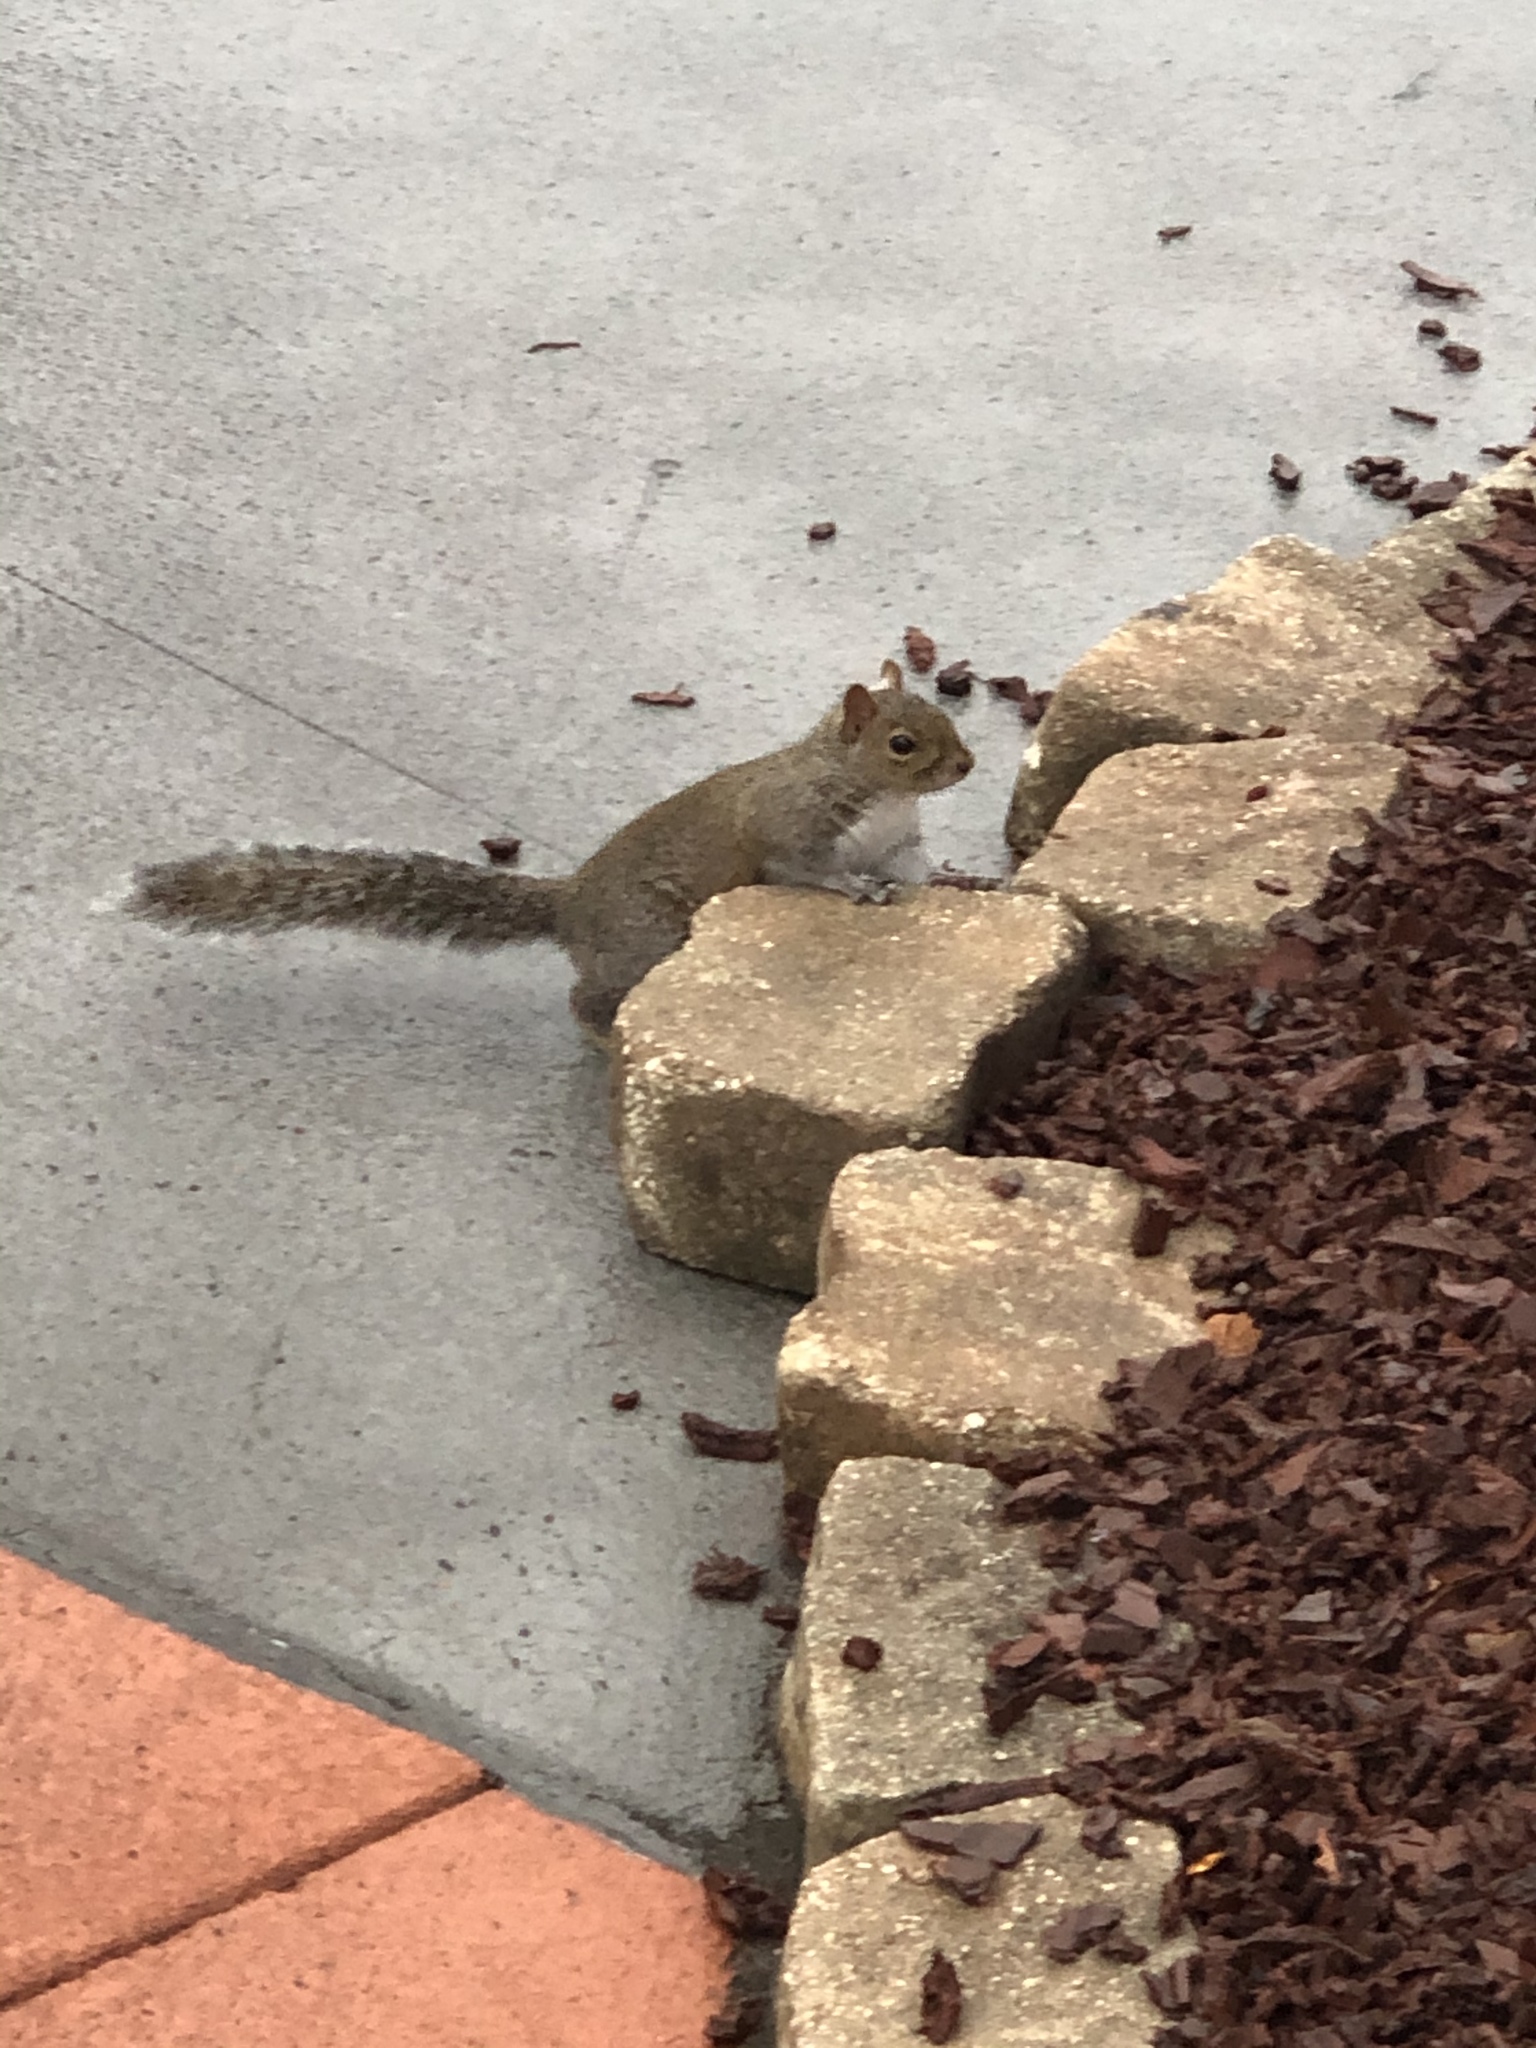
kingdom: Animalia
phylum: Chordata
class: Mammalia
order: Rodentia
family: Sciuridae
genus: Sciurus
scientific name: Sciurus carolinensis
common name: Eastern gray squirrel
